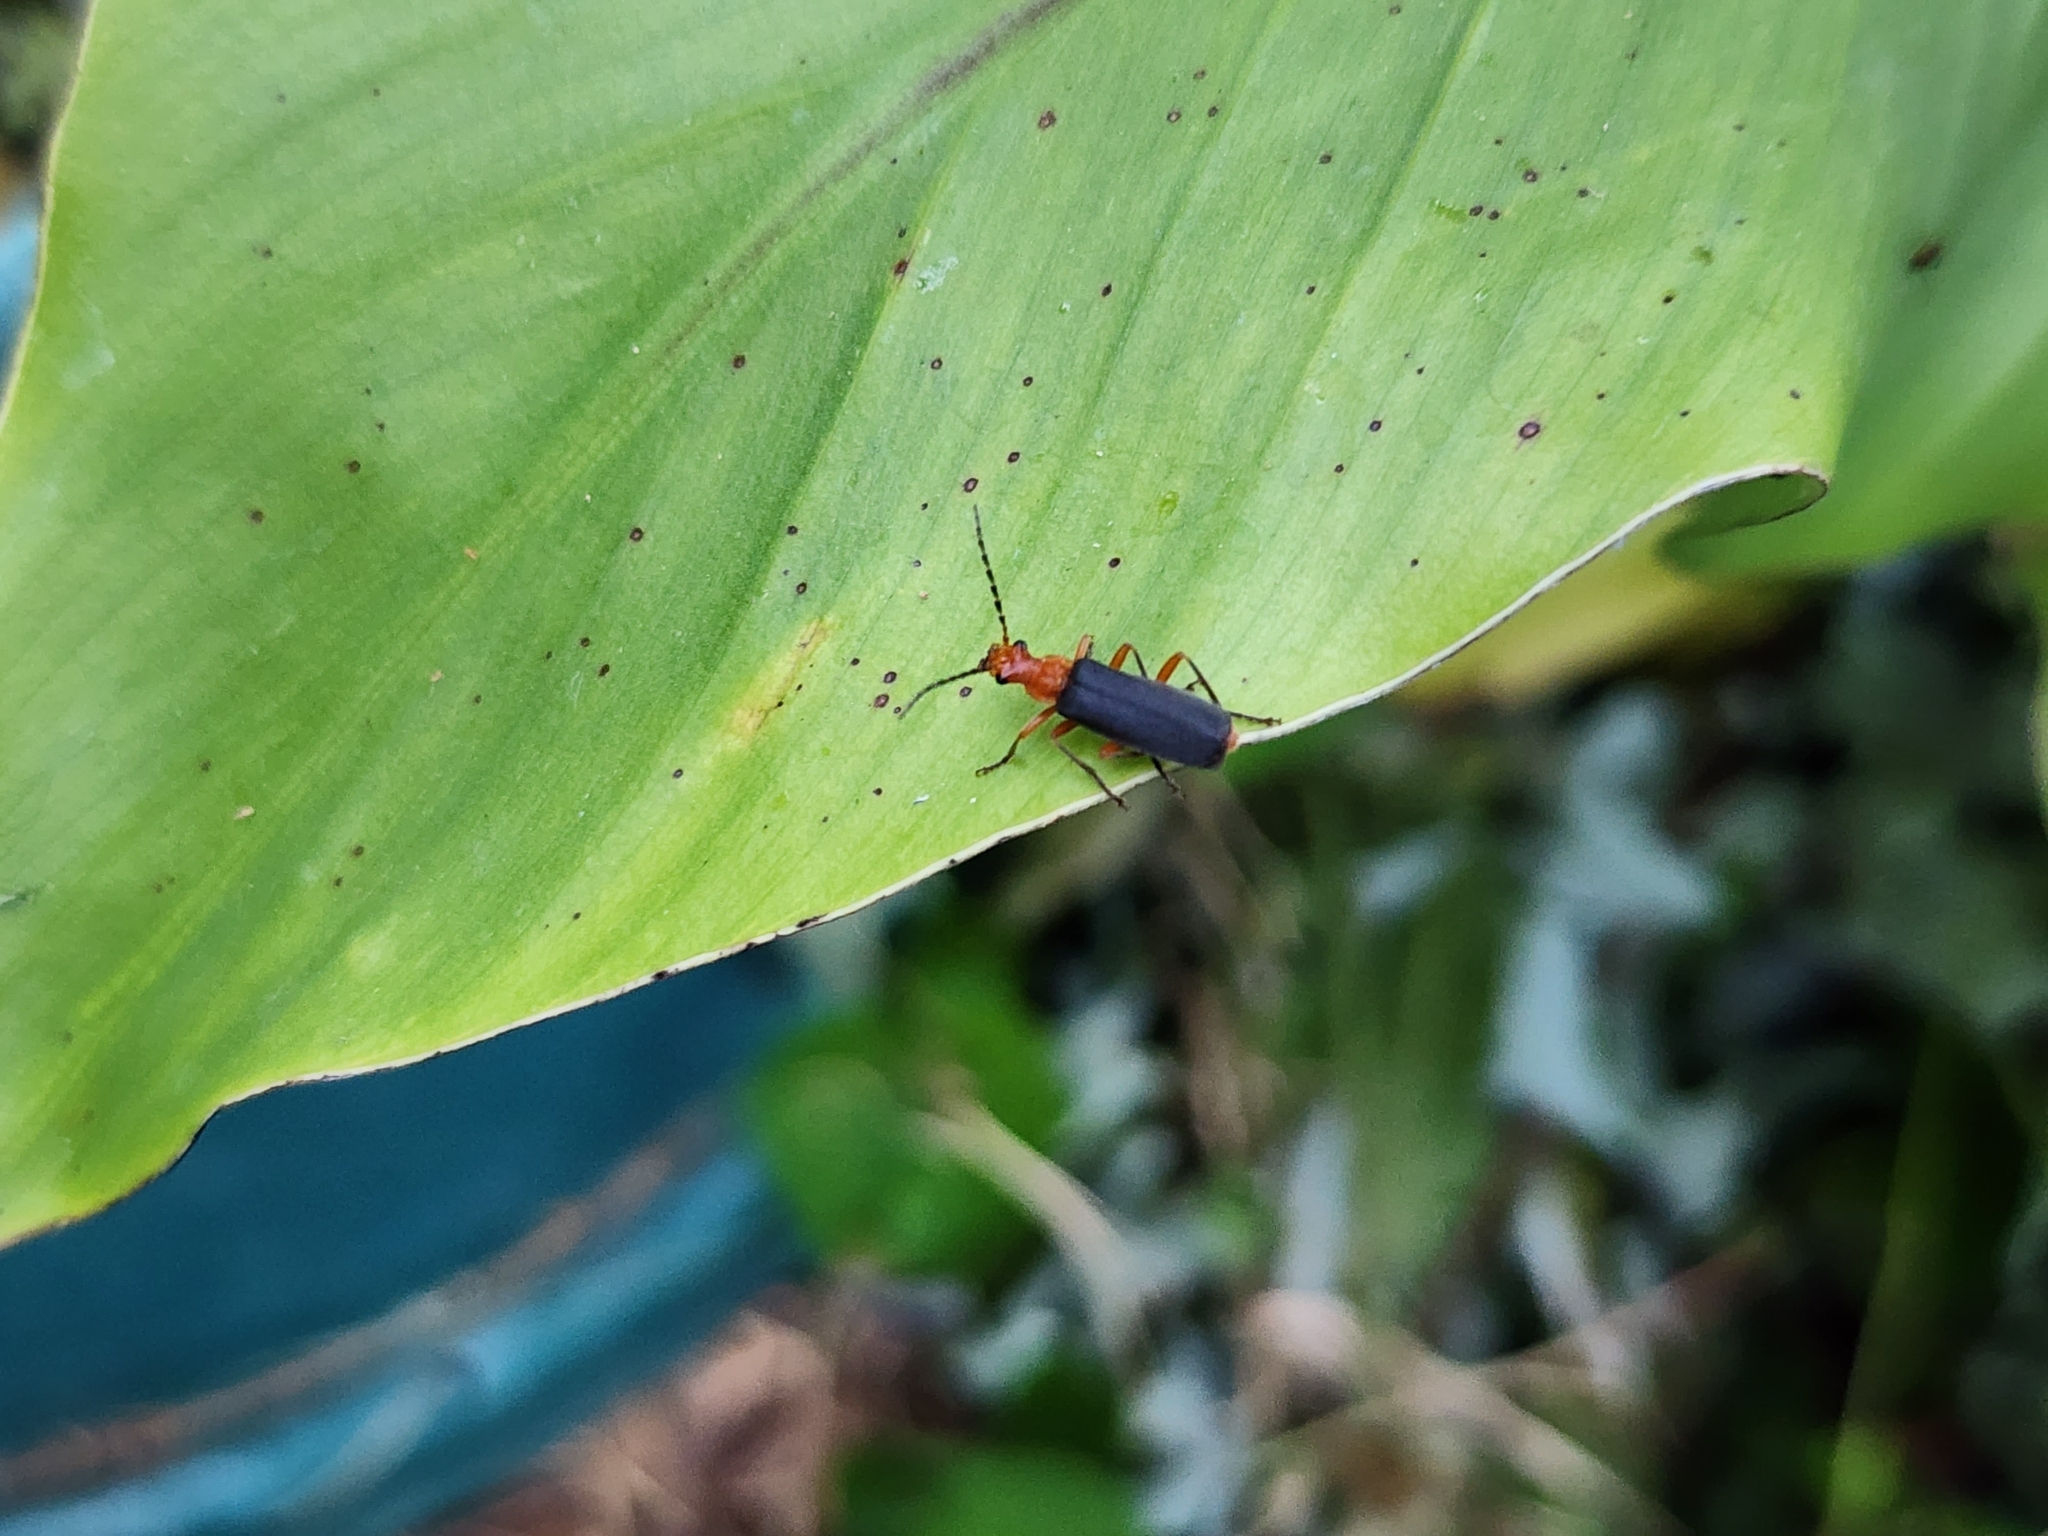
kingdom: Animalia
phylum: Arthropoda
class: Insecta
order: Coleoptera
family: Cantharidae
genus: Podabrus
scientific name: Podabrus tomentosus
